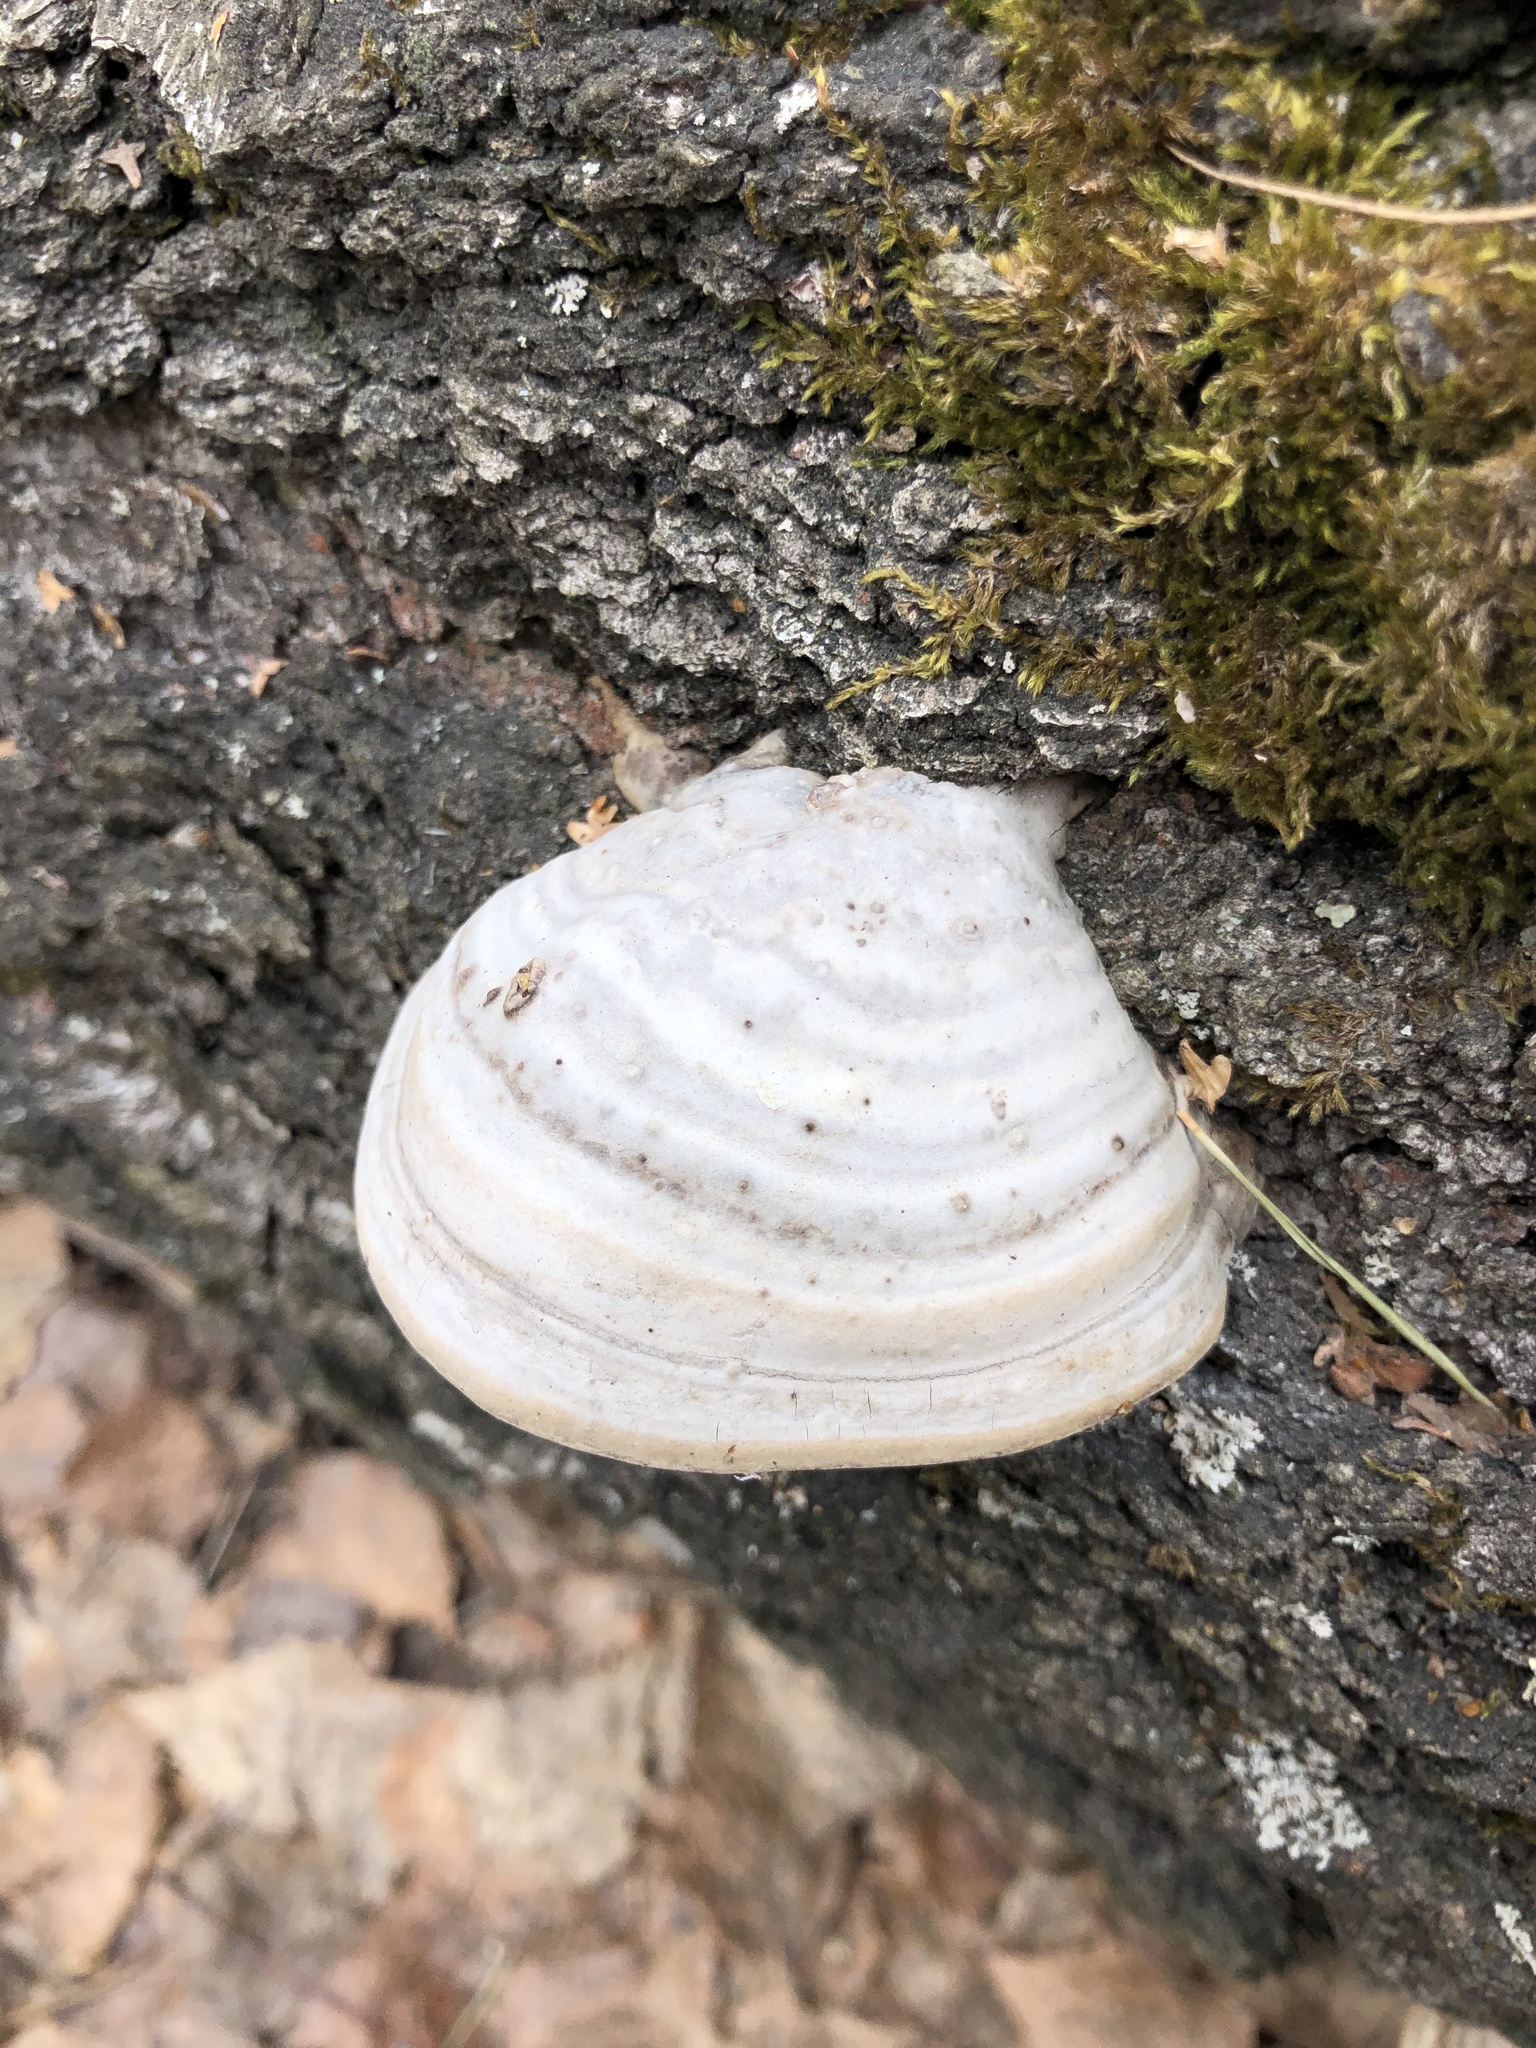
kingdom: Fungi
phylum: Basidiomycota
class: Agaricomycetes
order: Polyporales
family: Polyporaceae
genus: Fomes
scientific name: Fomes fomentarius
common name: Hoof fungus
